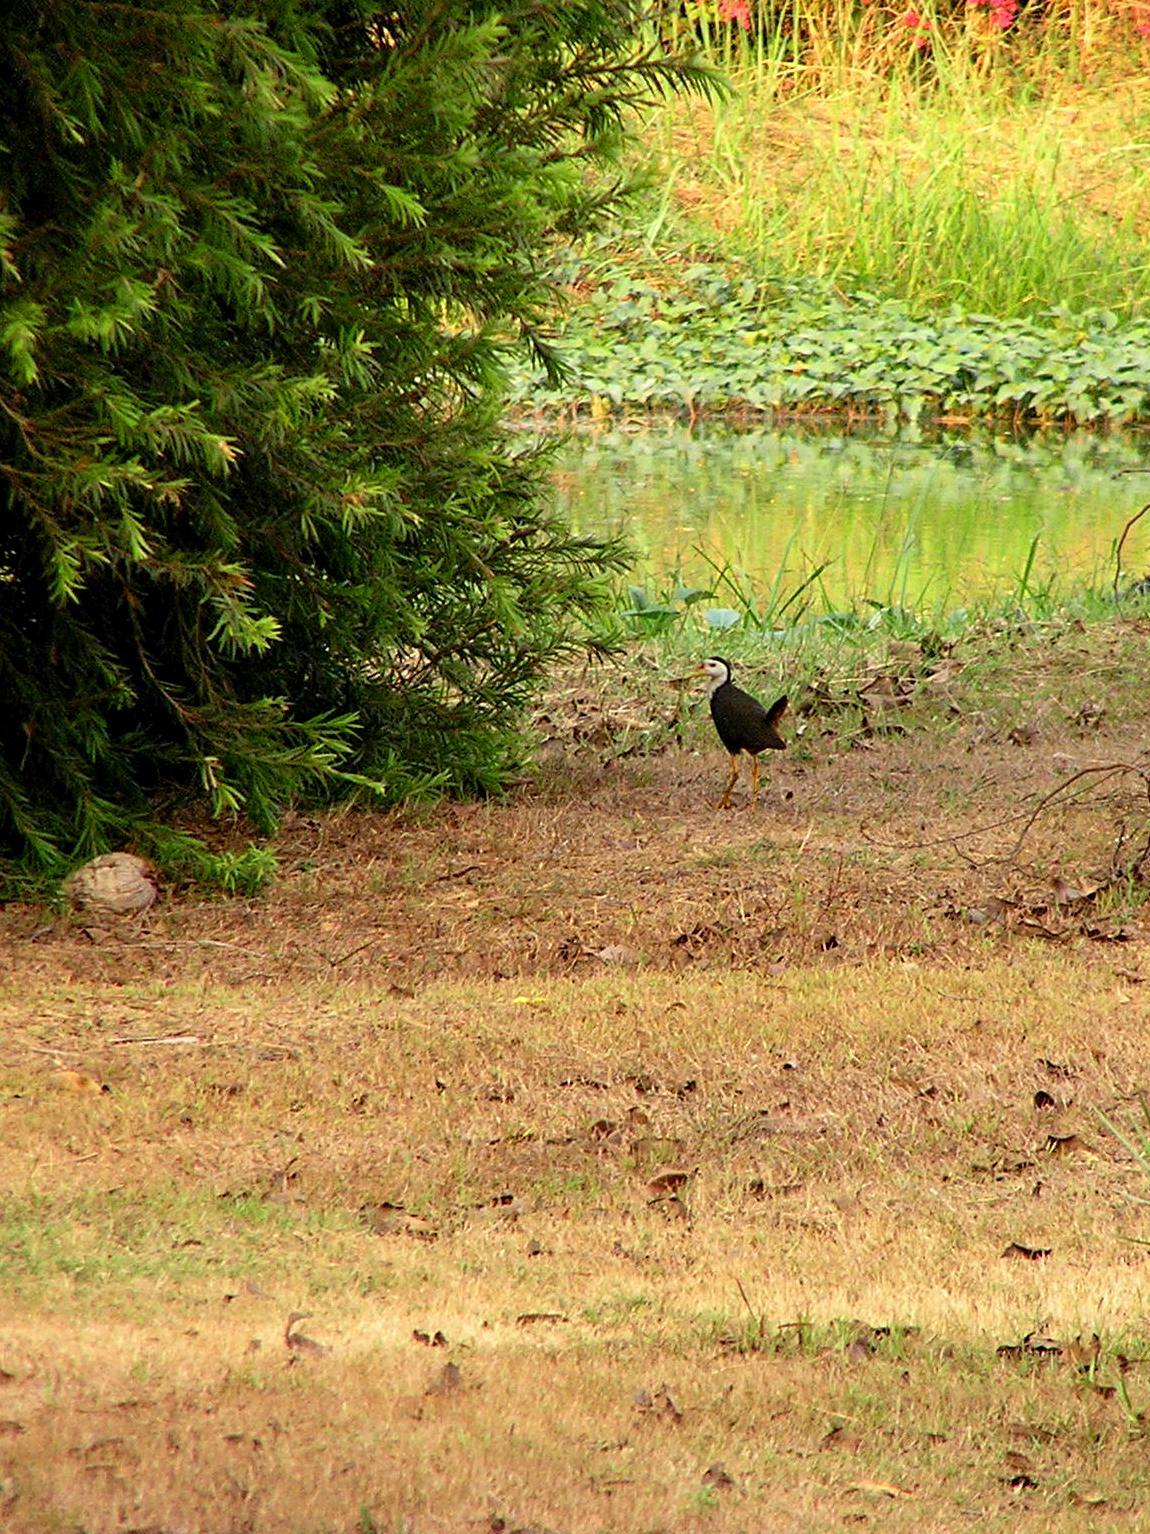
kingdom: Animalia
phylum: Chordata
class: Aves
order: Gruiformes
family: Rallidae
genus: Amaurornis
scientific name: Amaurornis phoenicurus
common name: White-breasted waterhen
